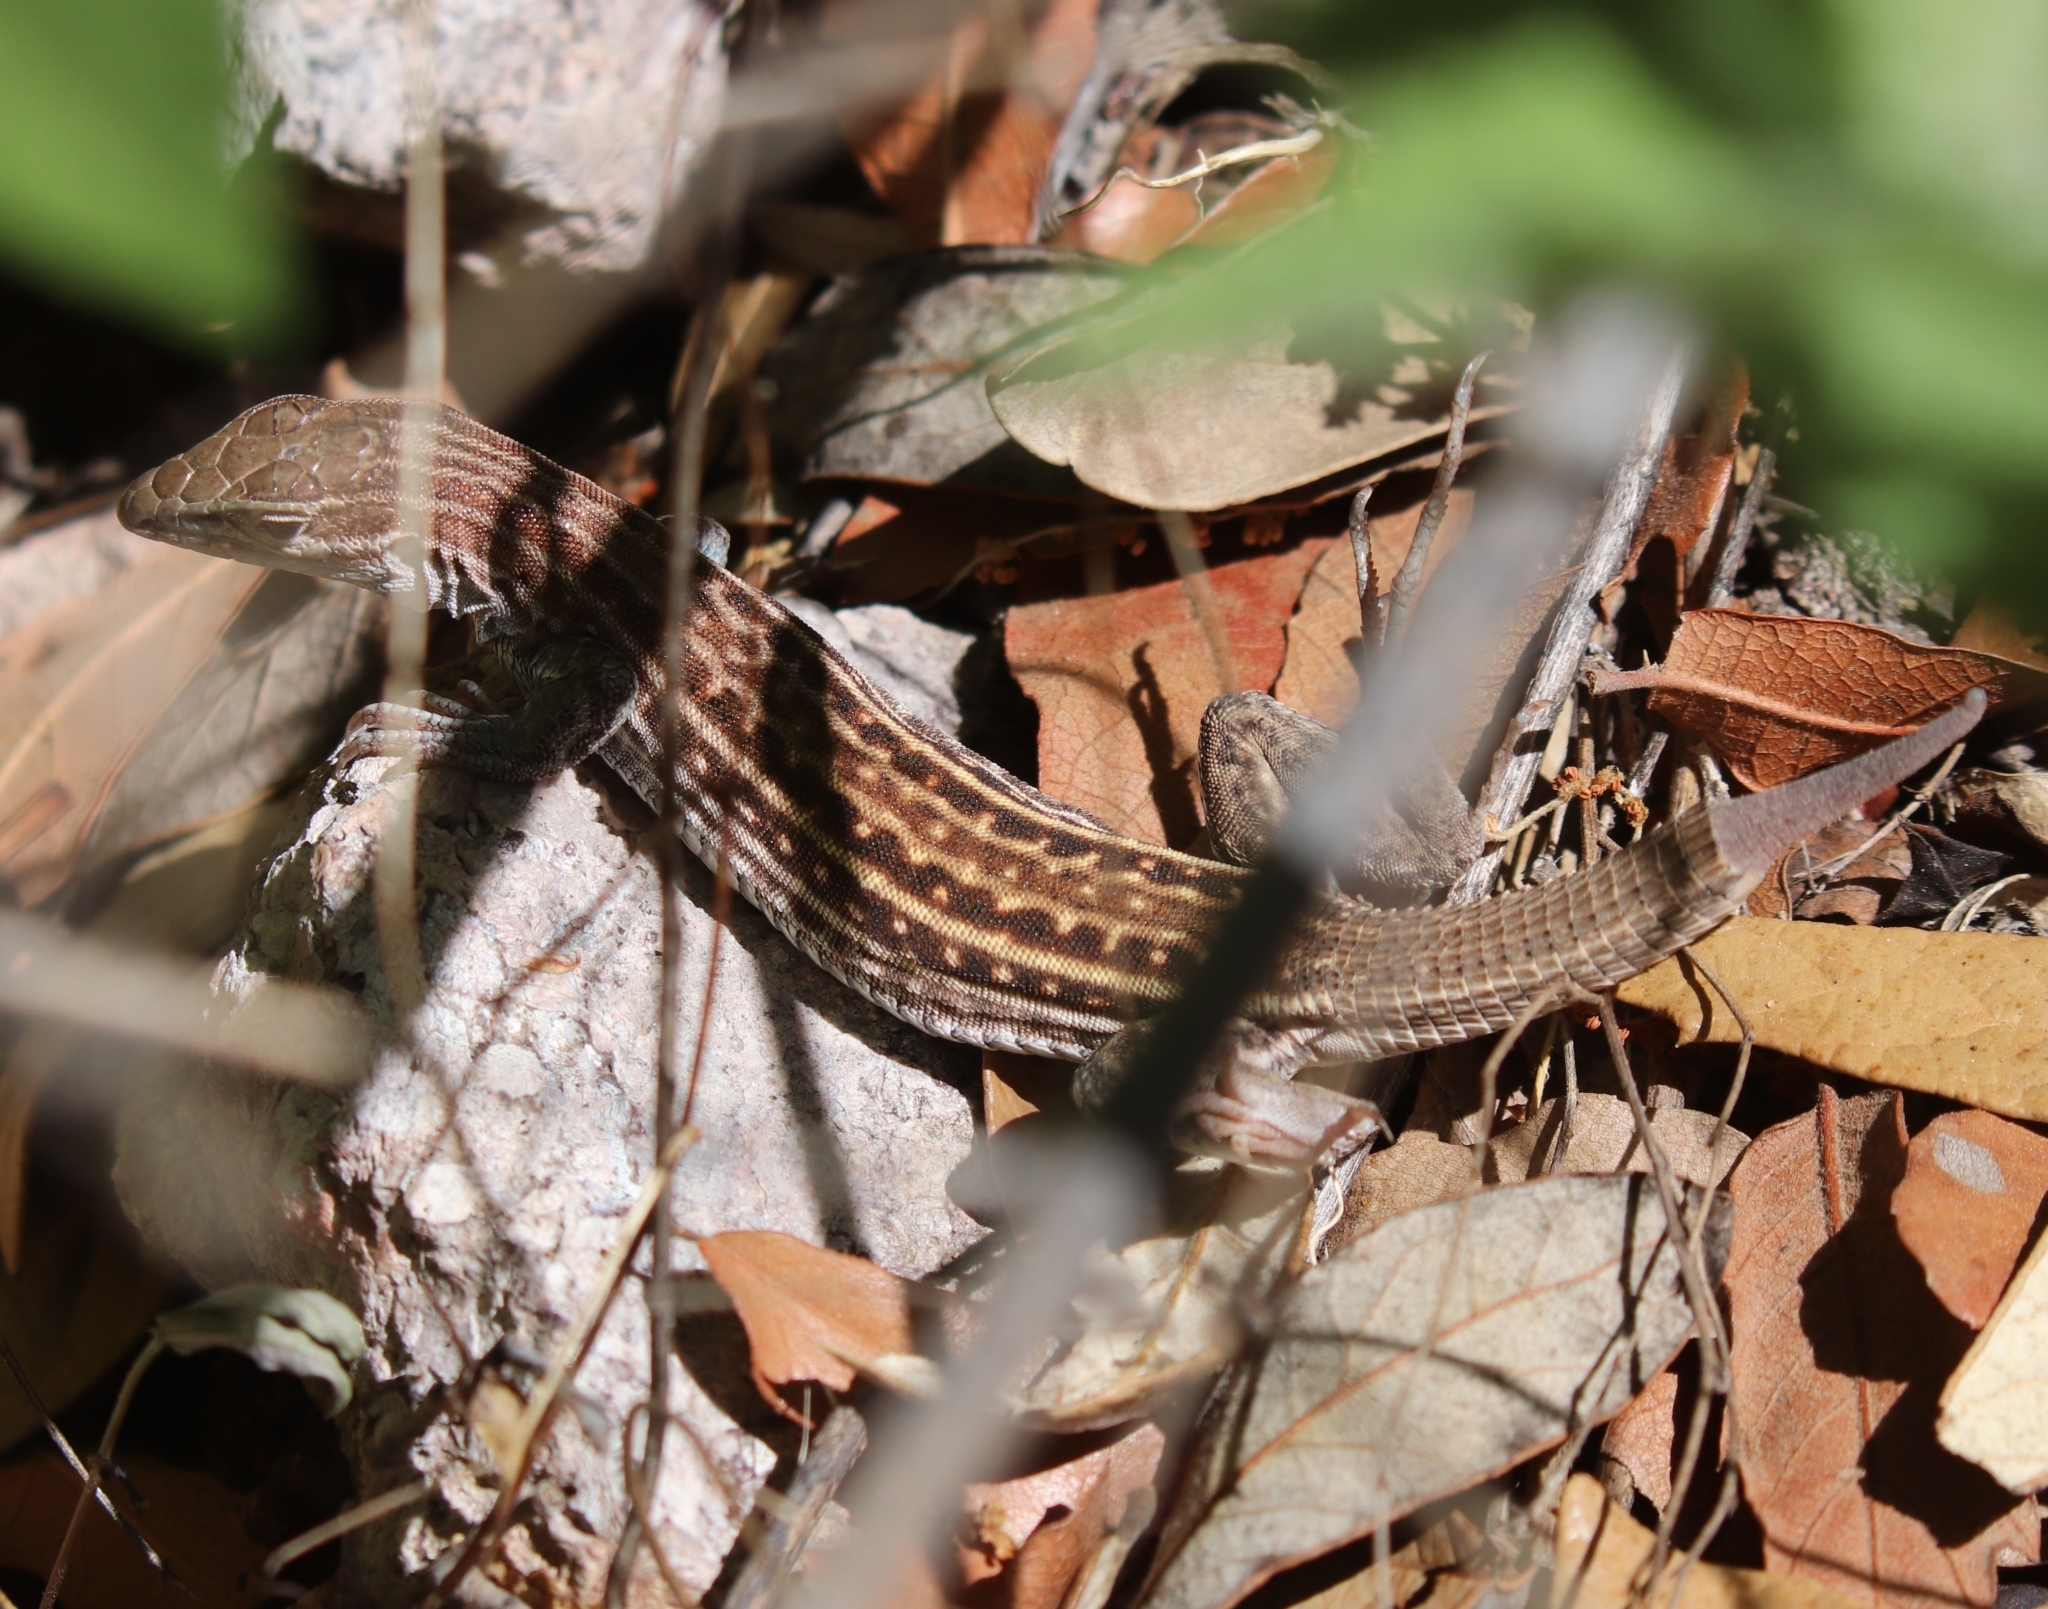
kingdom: Animalia
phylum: Chordata
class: Squamata
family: Teiidae
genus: Aspidoscelis
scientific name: Aspidoscelis sonorae
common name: Sonoran spotted whiptail
